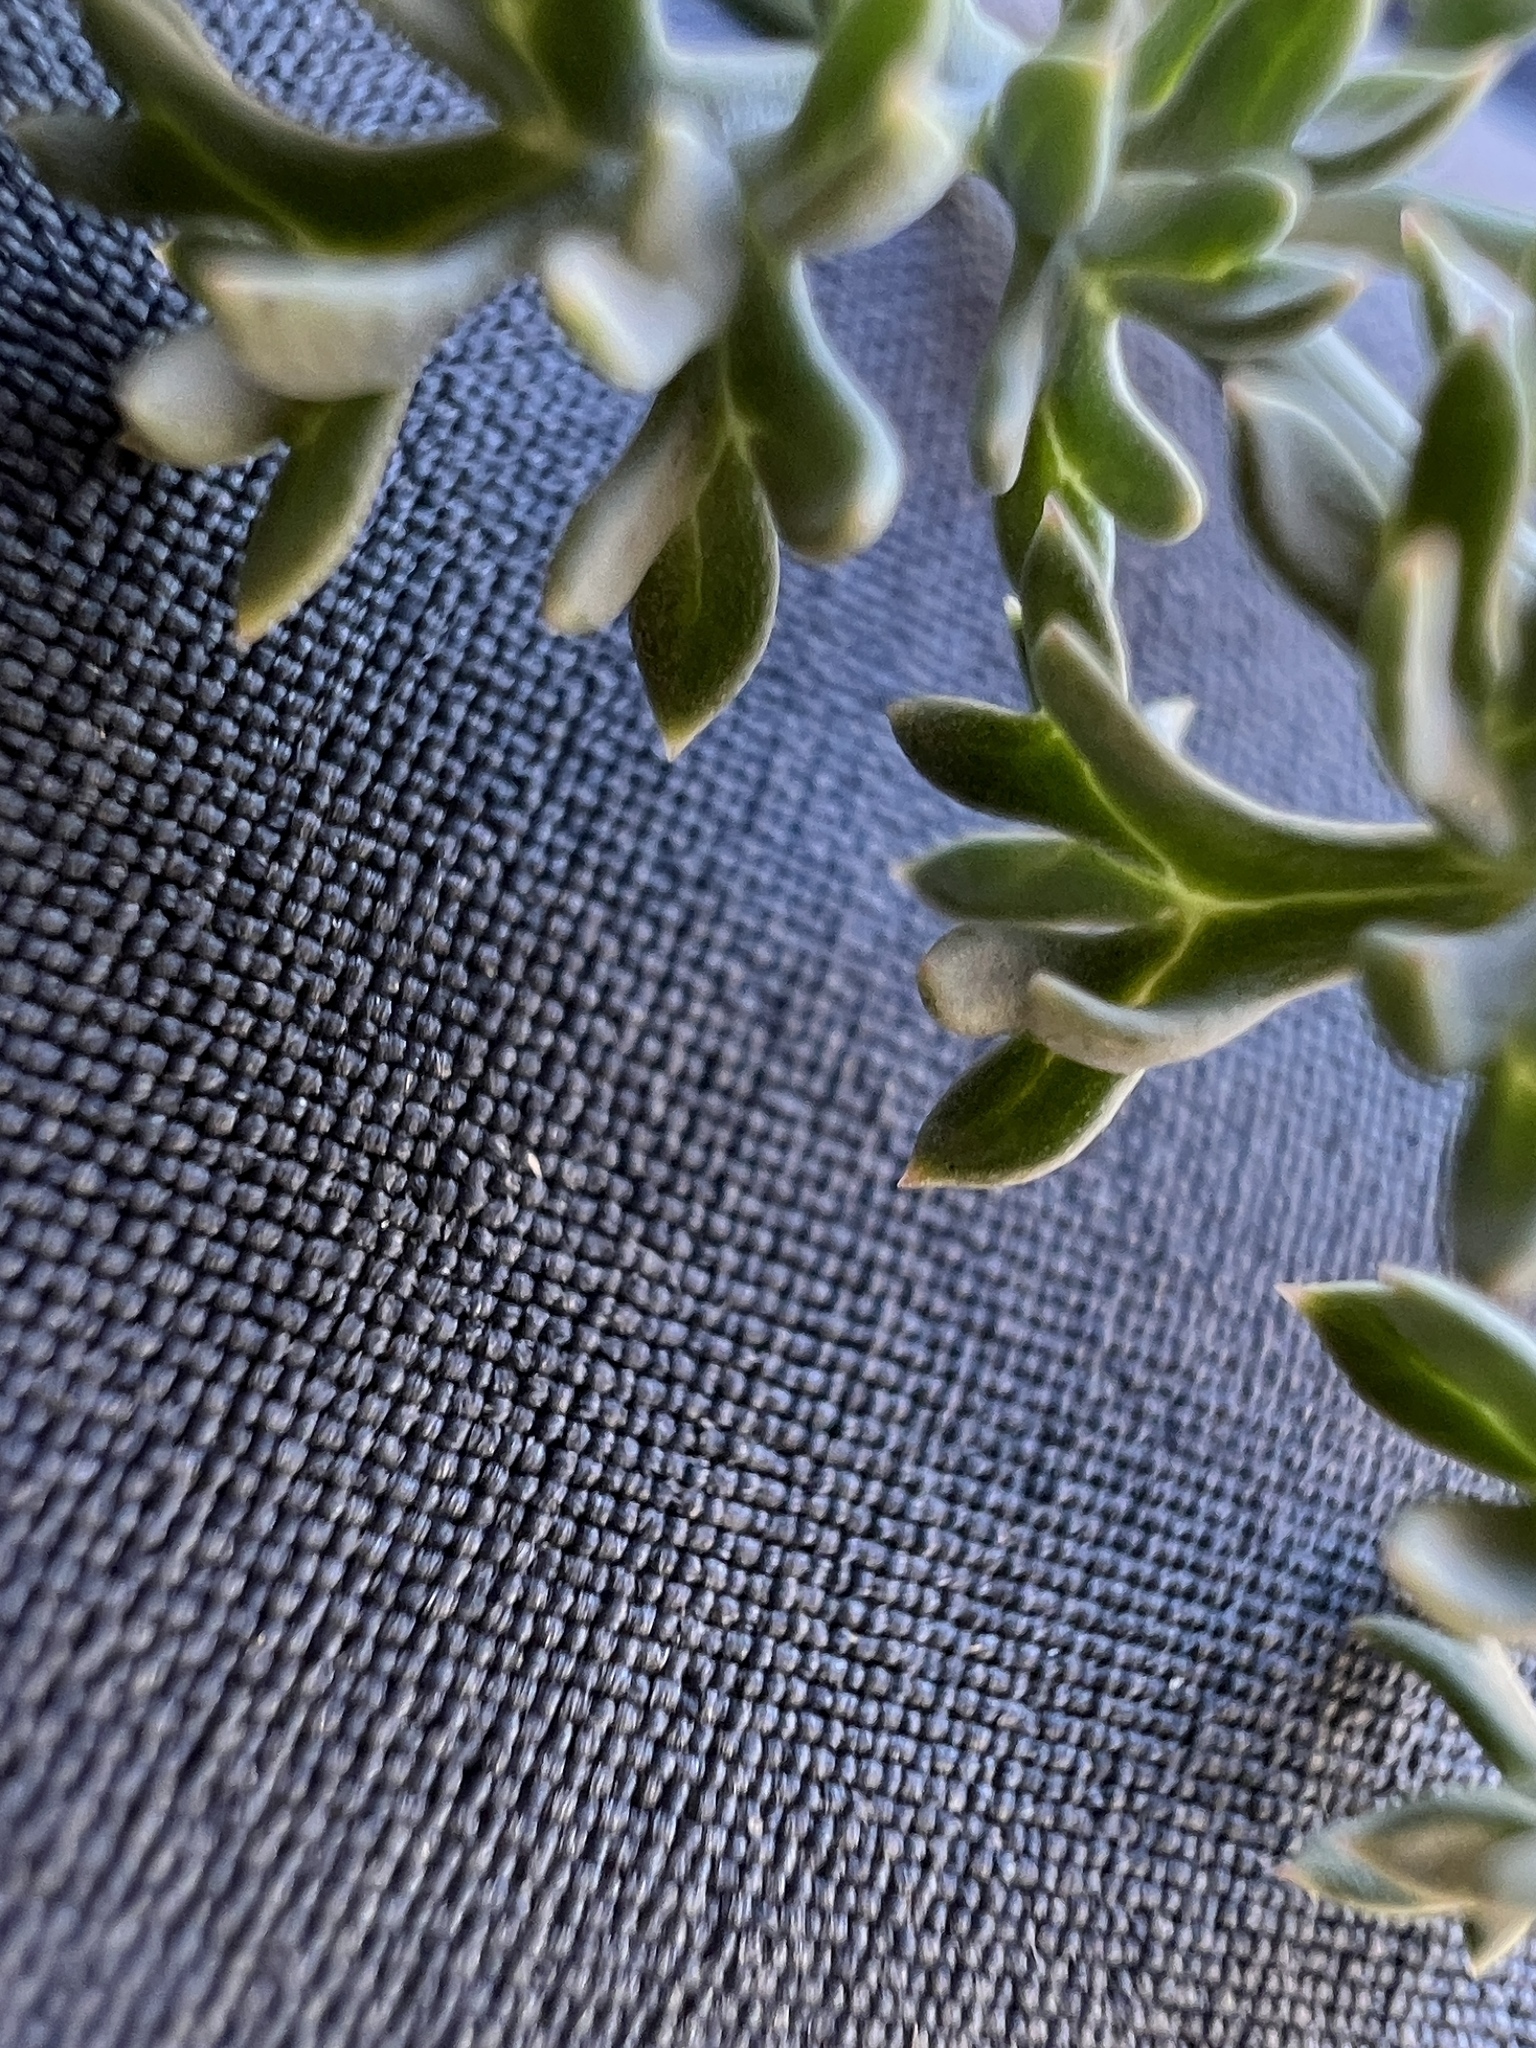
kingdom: Plantae
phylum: Tracheophyta
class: Magnoliopsida
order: Apiales
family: Apiaceae
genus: Lomatium
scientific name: Lomatium cuspidatum
